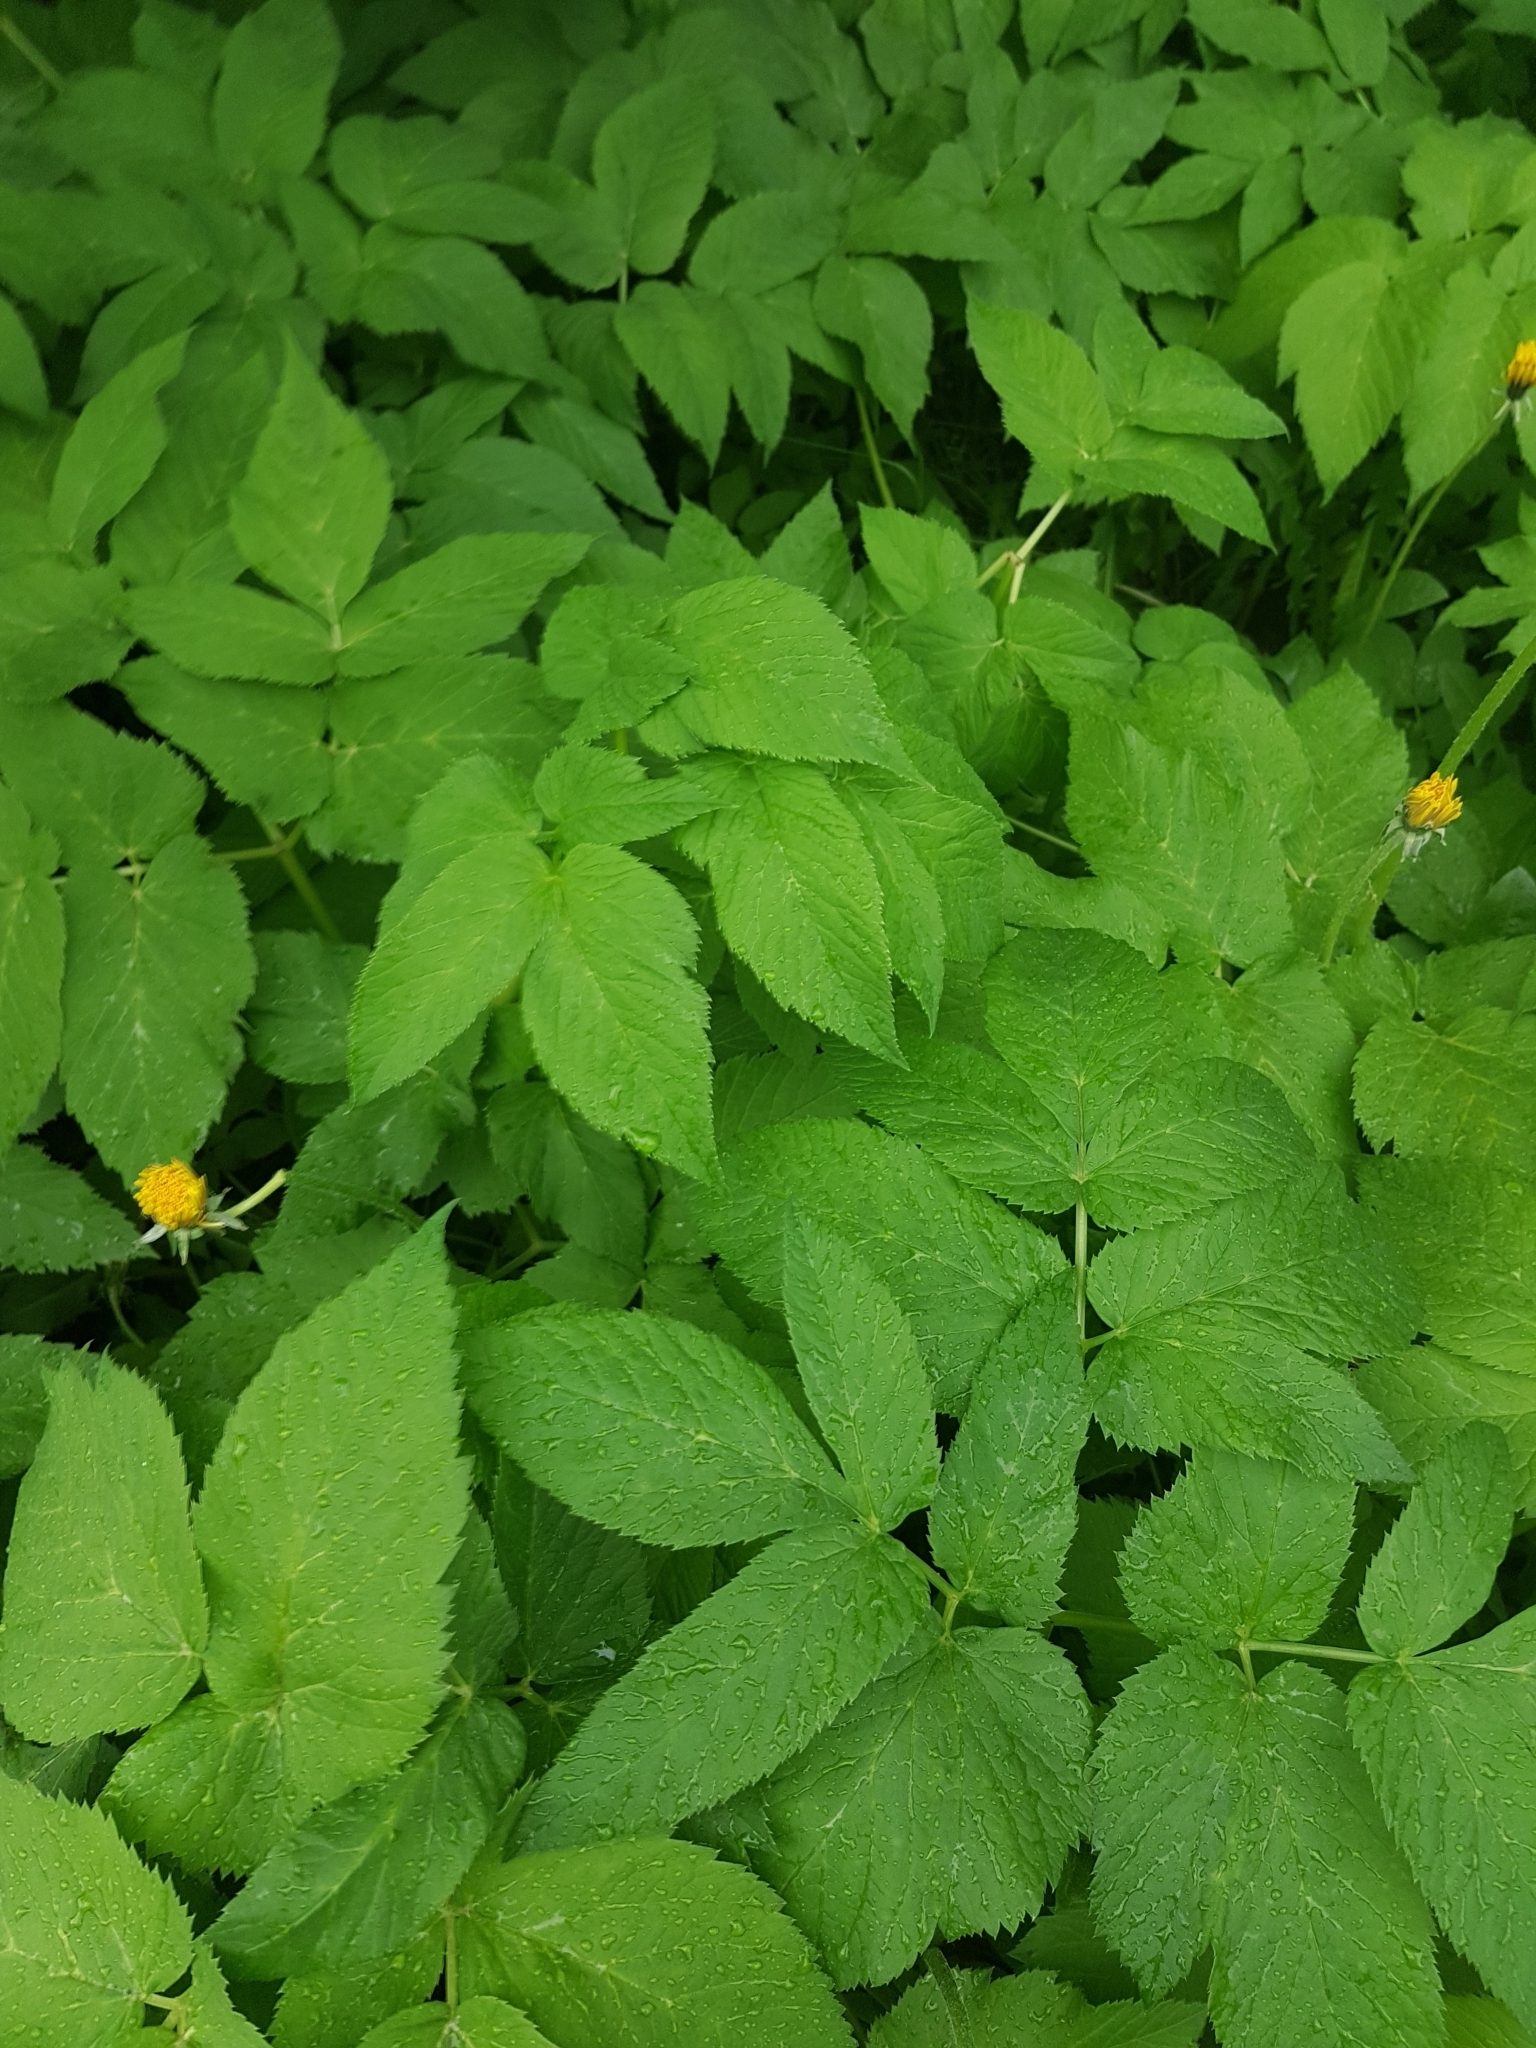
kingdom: Plantae
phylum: Tracheophyta
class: Magnoliopsida
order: Apiales
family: Apiaceae
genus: Aegopodium
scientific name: Aegopodium podagraria
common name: Ground-elder
